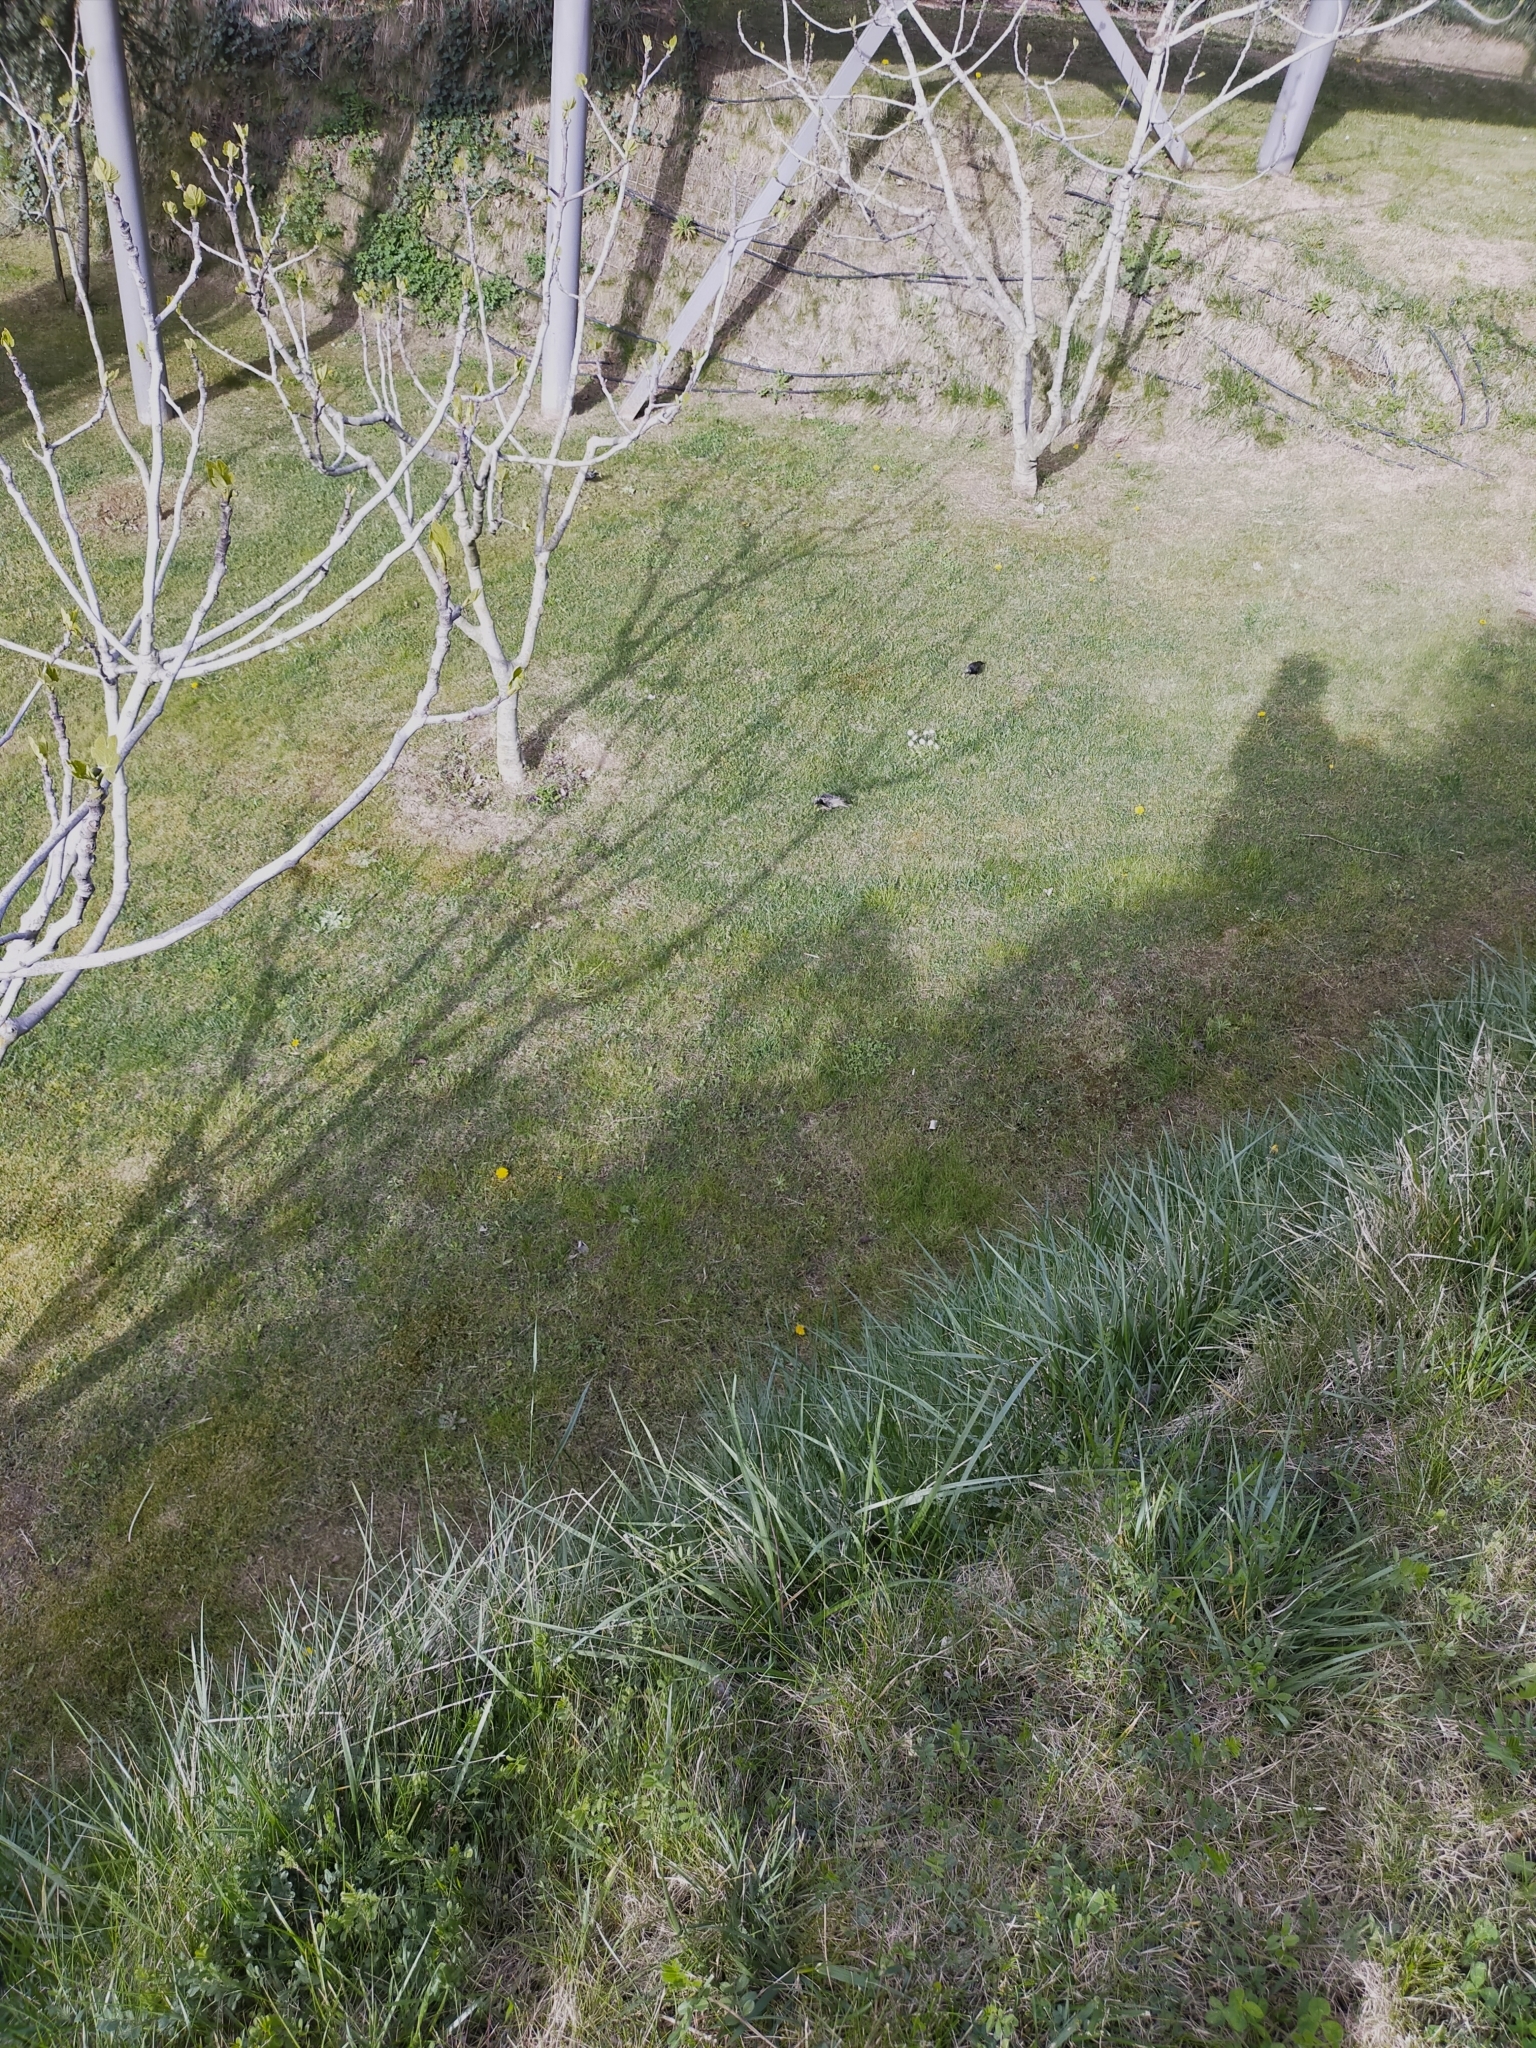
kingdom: Animalia
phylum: Chordata
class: Aves
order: Passeriformes
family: Sturnidae
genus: Sturnus
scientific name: Sturnus vulgaris
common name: Common starling
